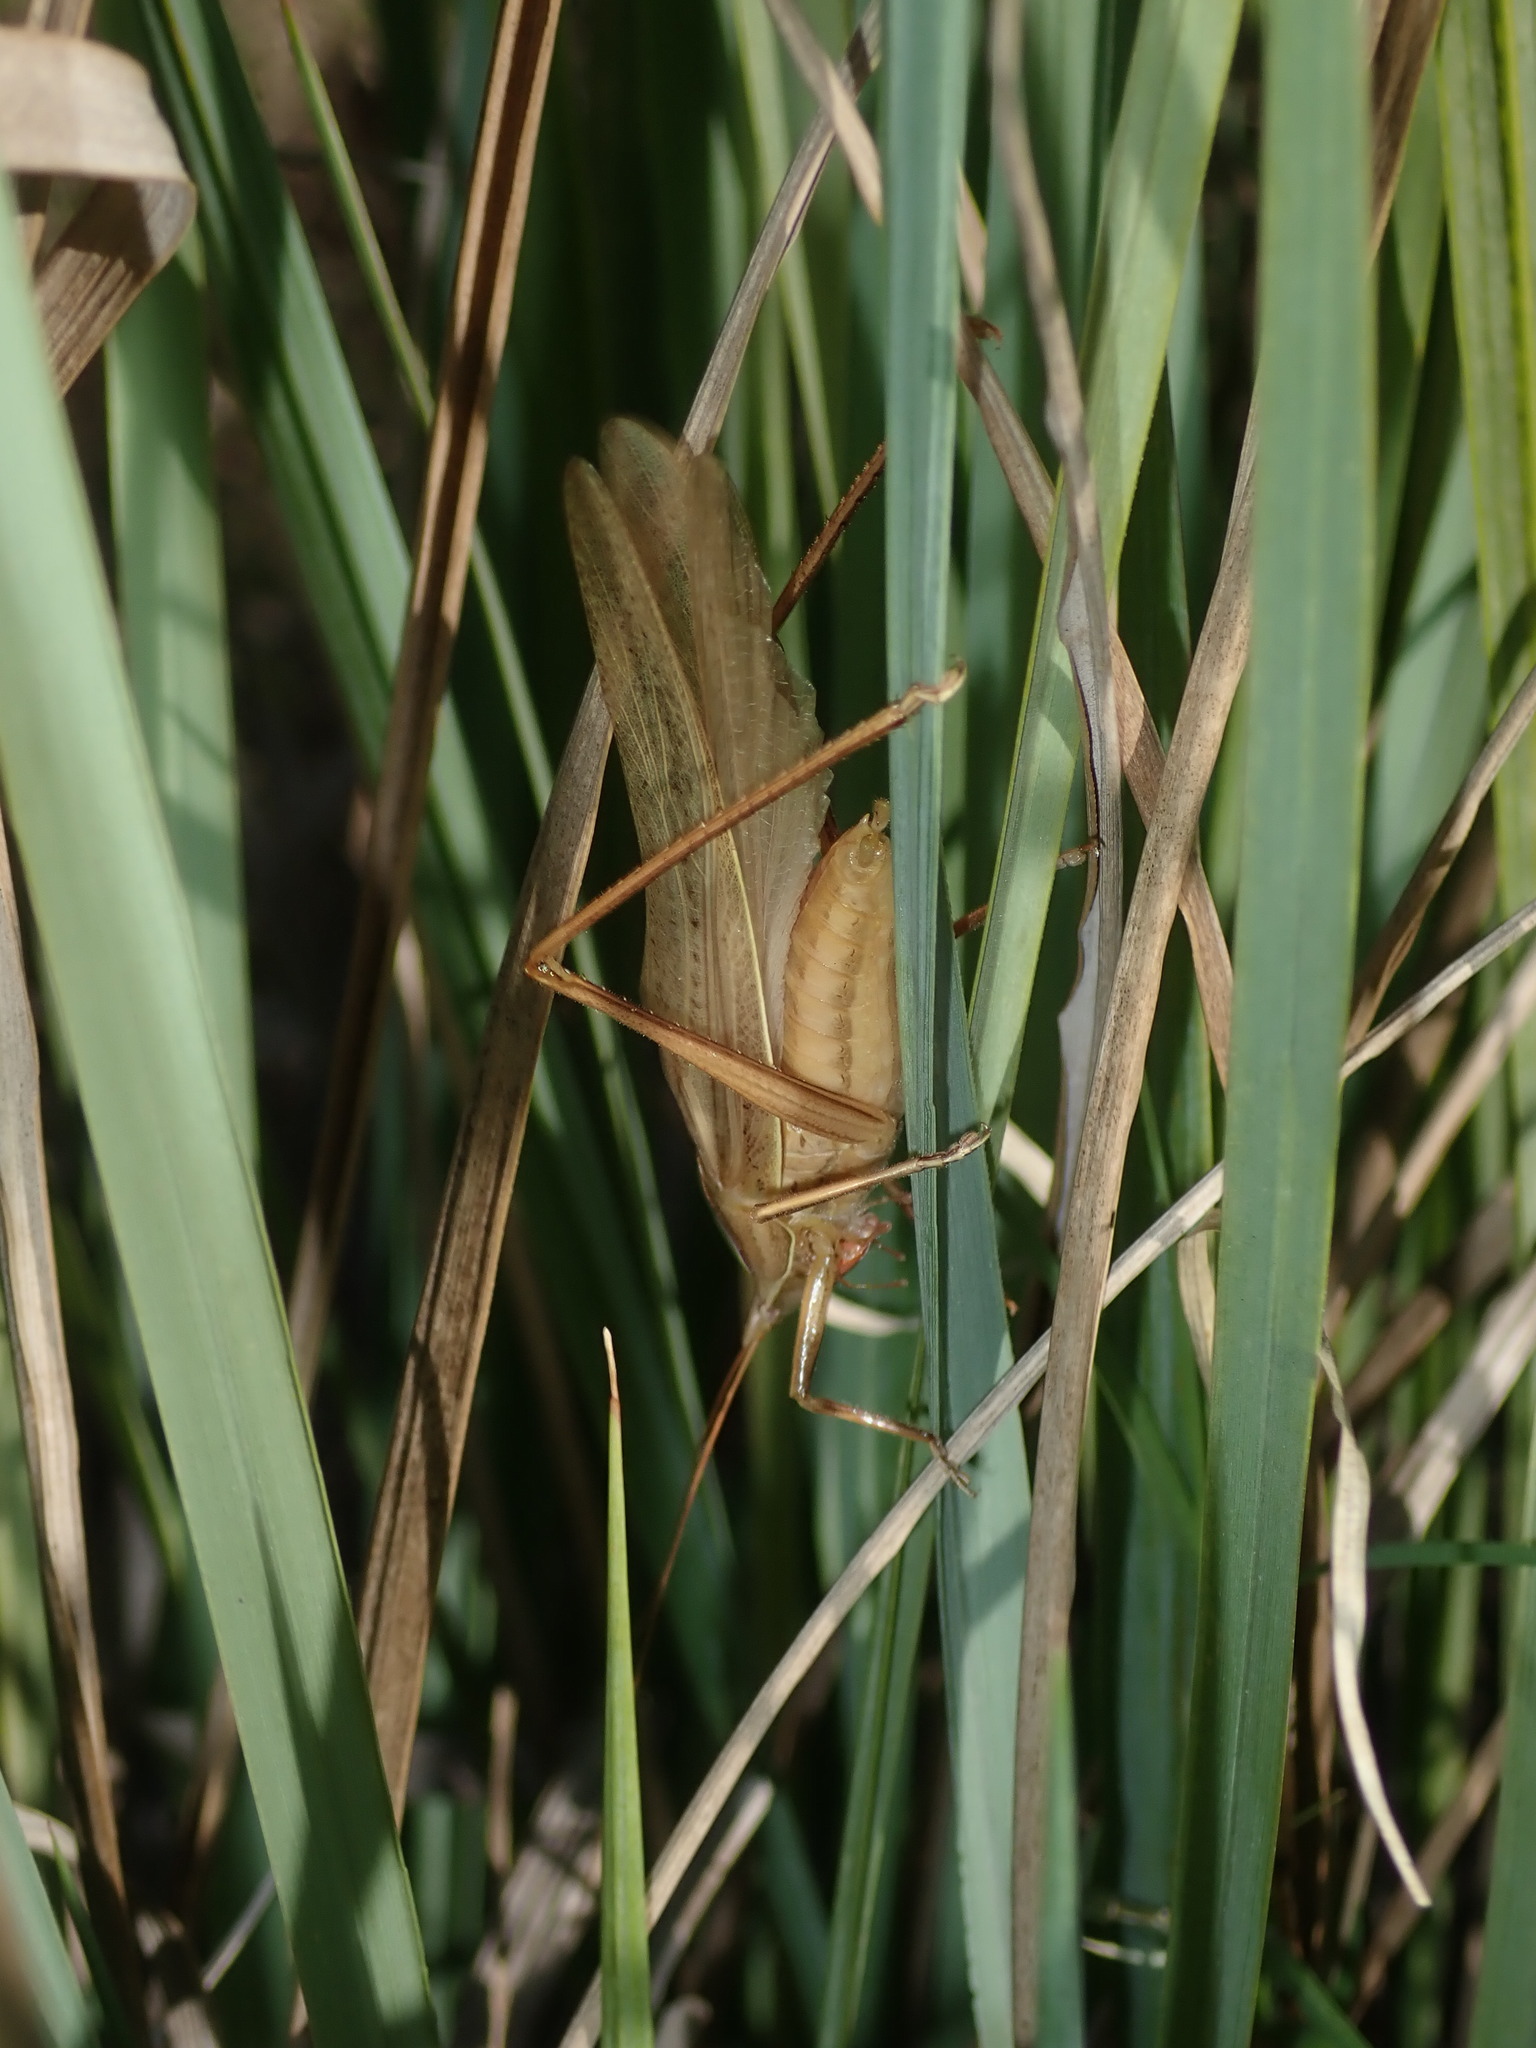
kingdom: Animalia
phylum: Arthropoda
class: Insecta
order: Orthoptera
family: Tettigoniidae
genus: Pseudorhynchus
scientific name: Pseudorhynchus lessonii
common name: Lesson's mimicking snout nose
